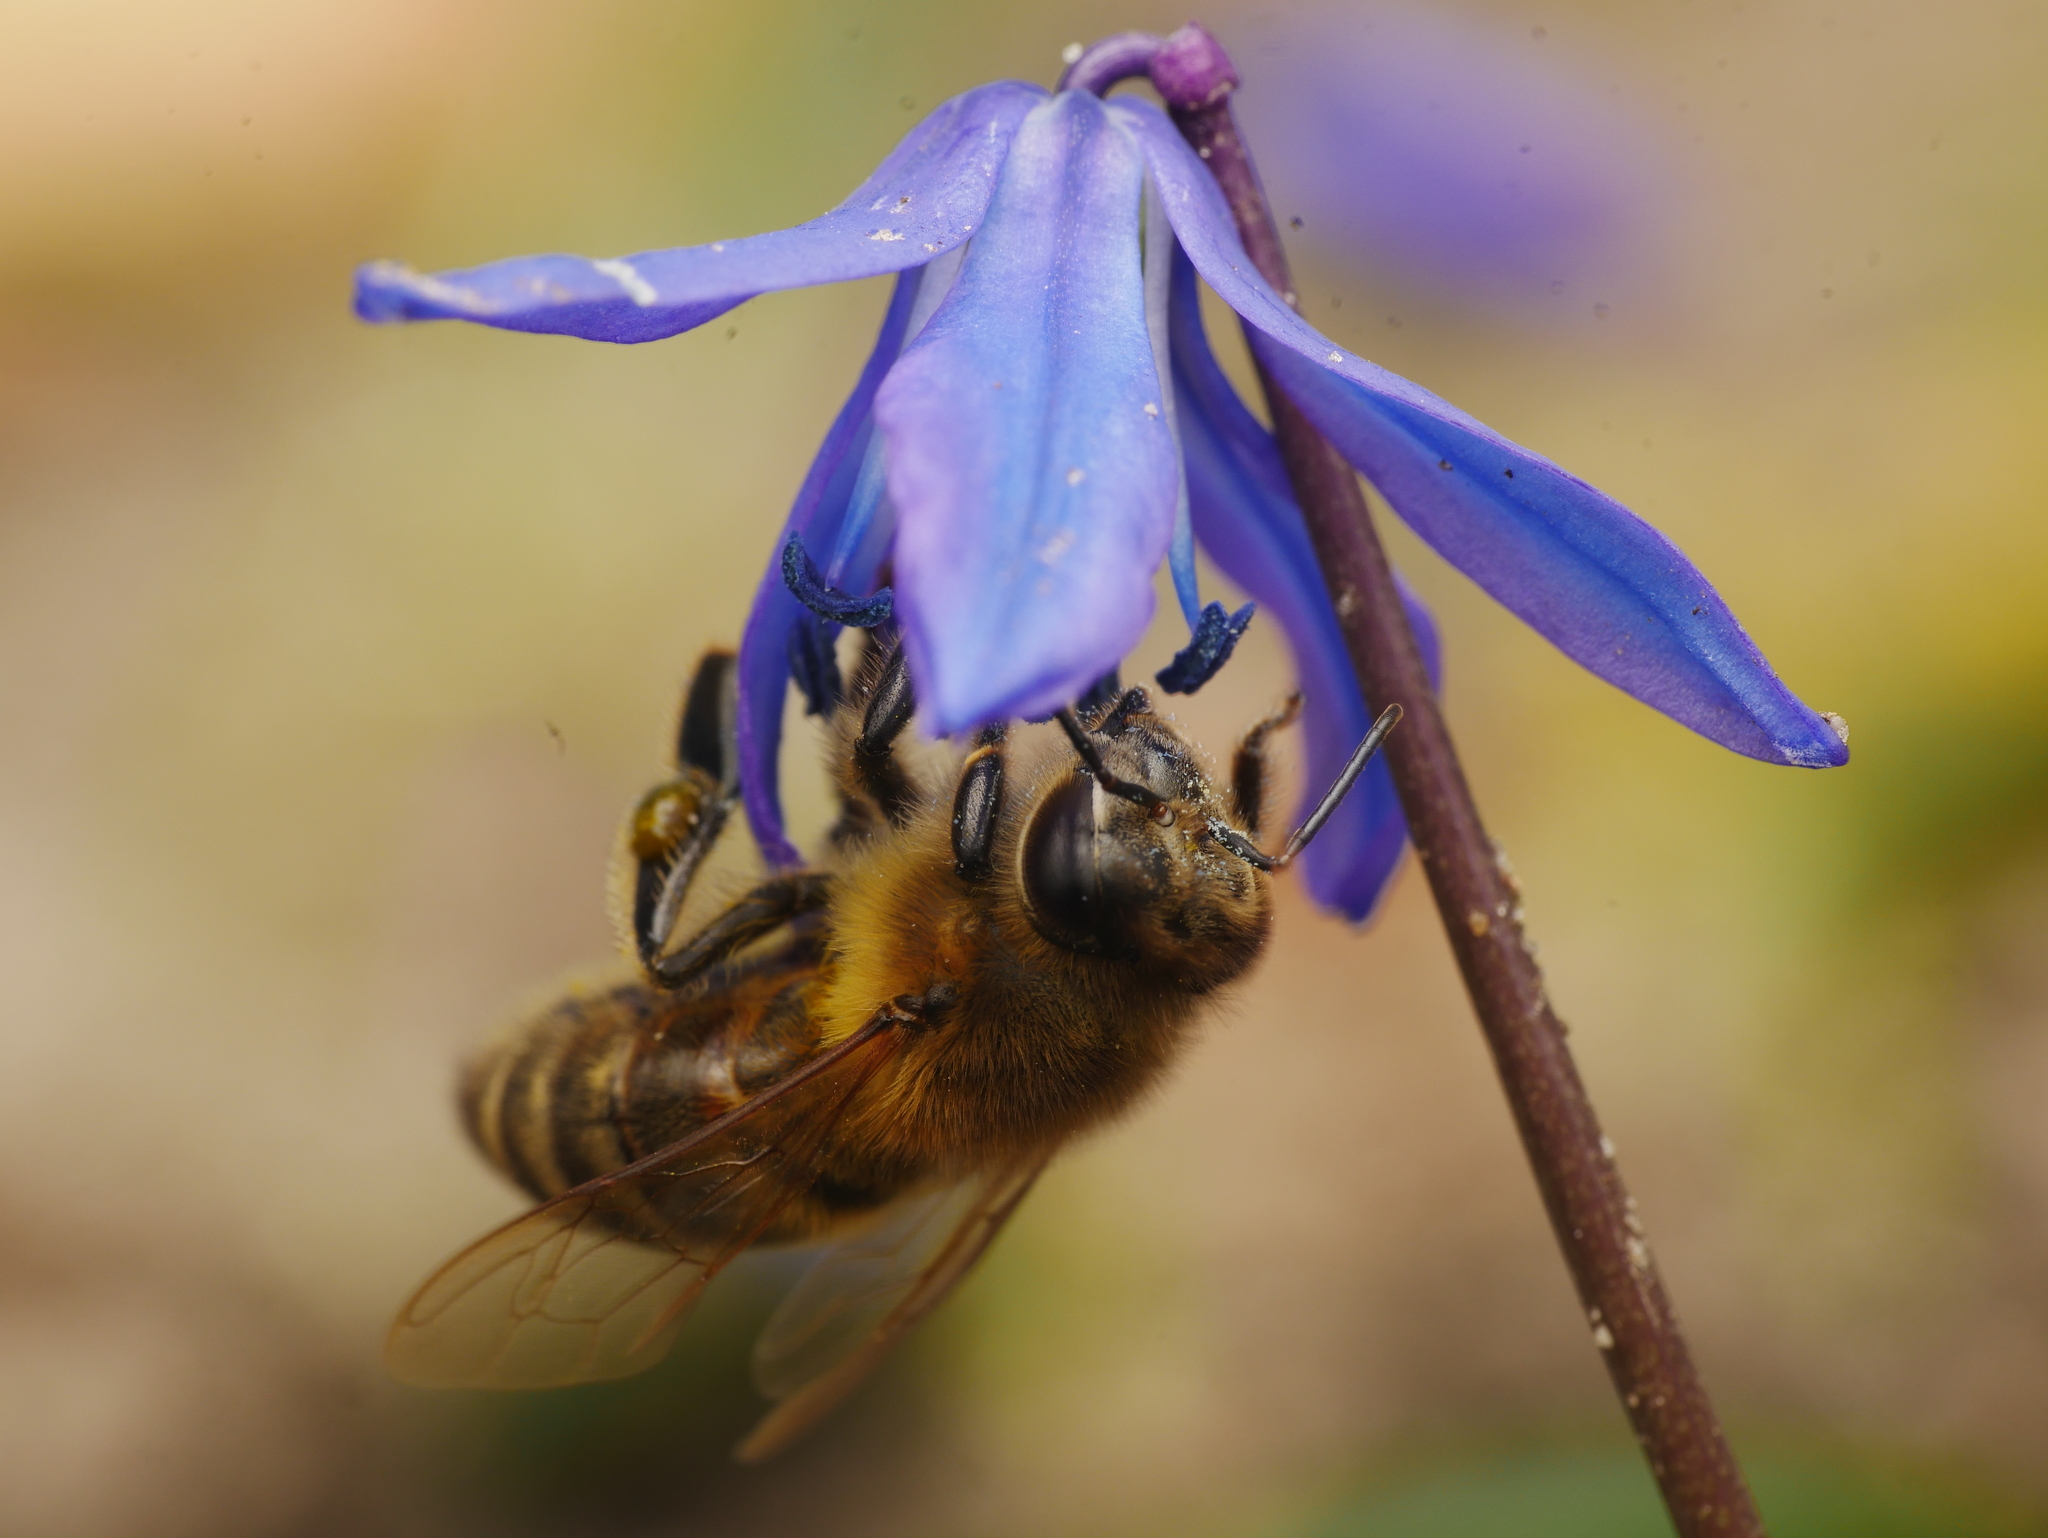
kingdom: Animalia
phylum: Arthropoda
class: Insecta
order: Hymenoptera
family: Apidae
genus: Apis
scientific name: Apis mellifera
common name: Honey bee
